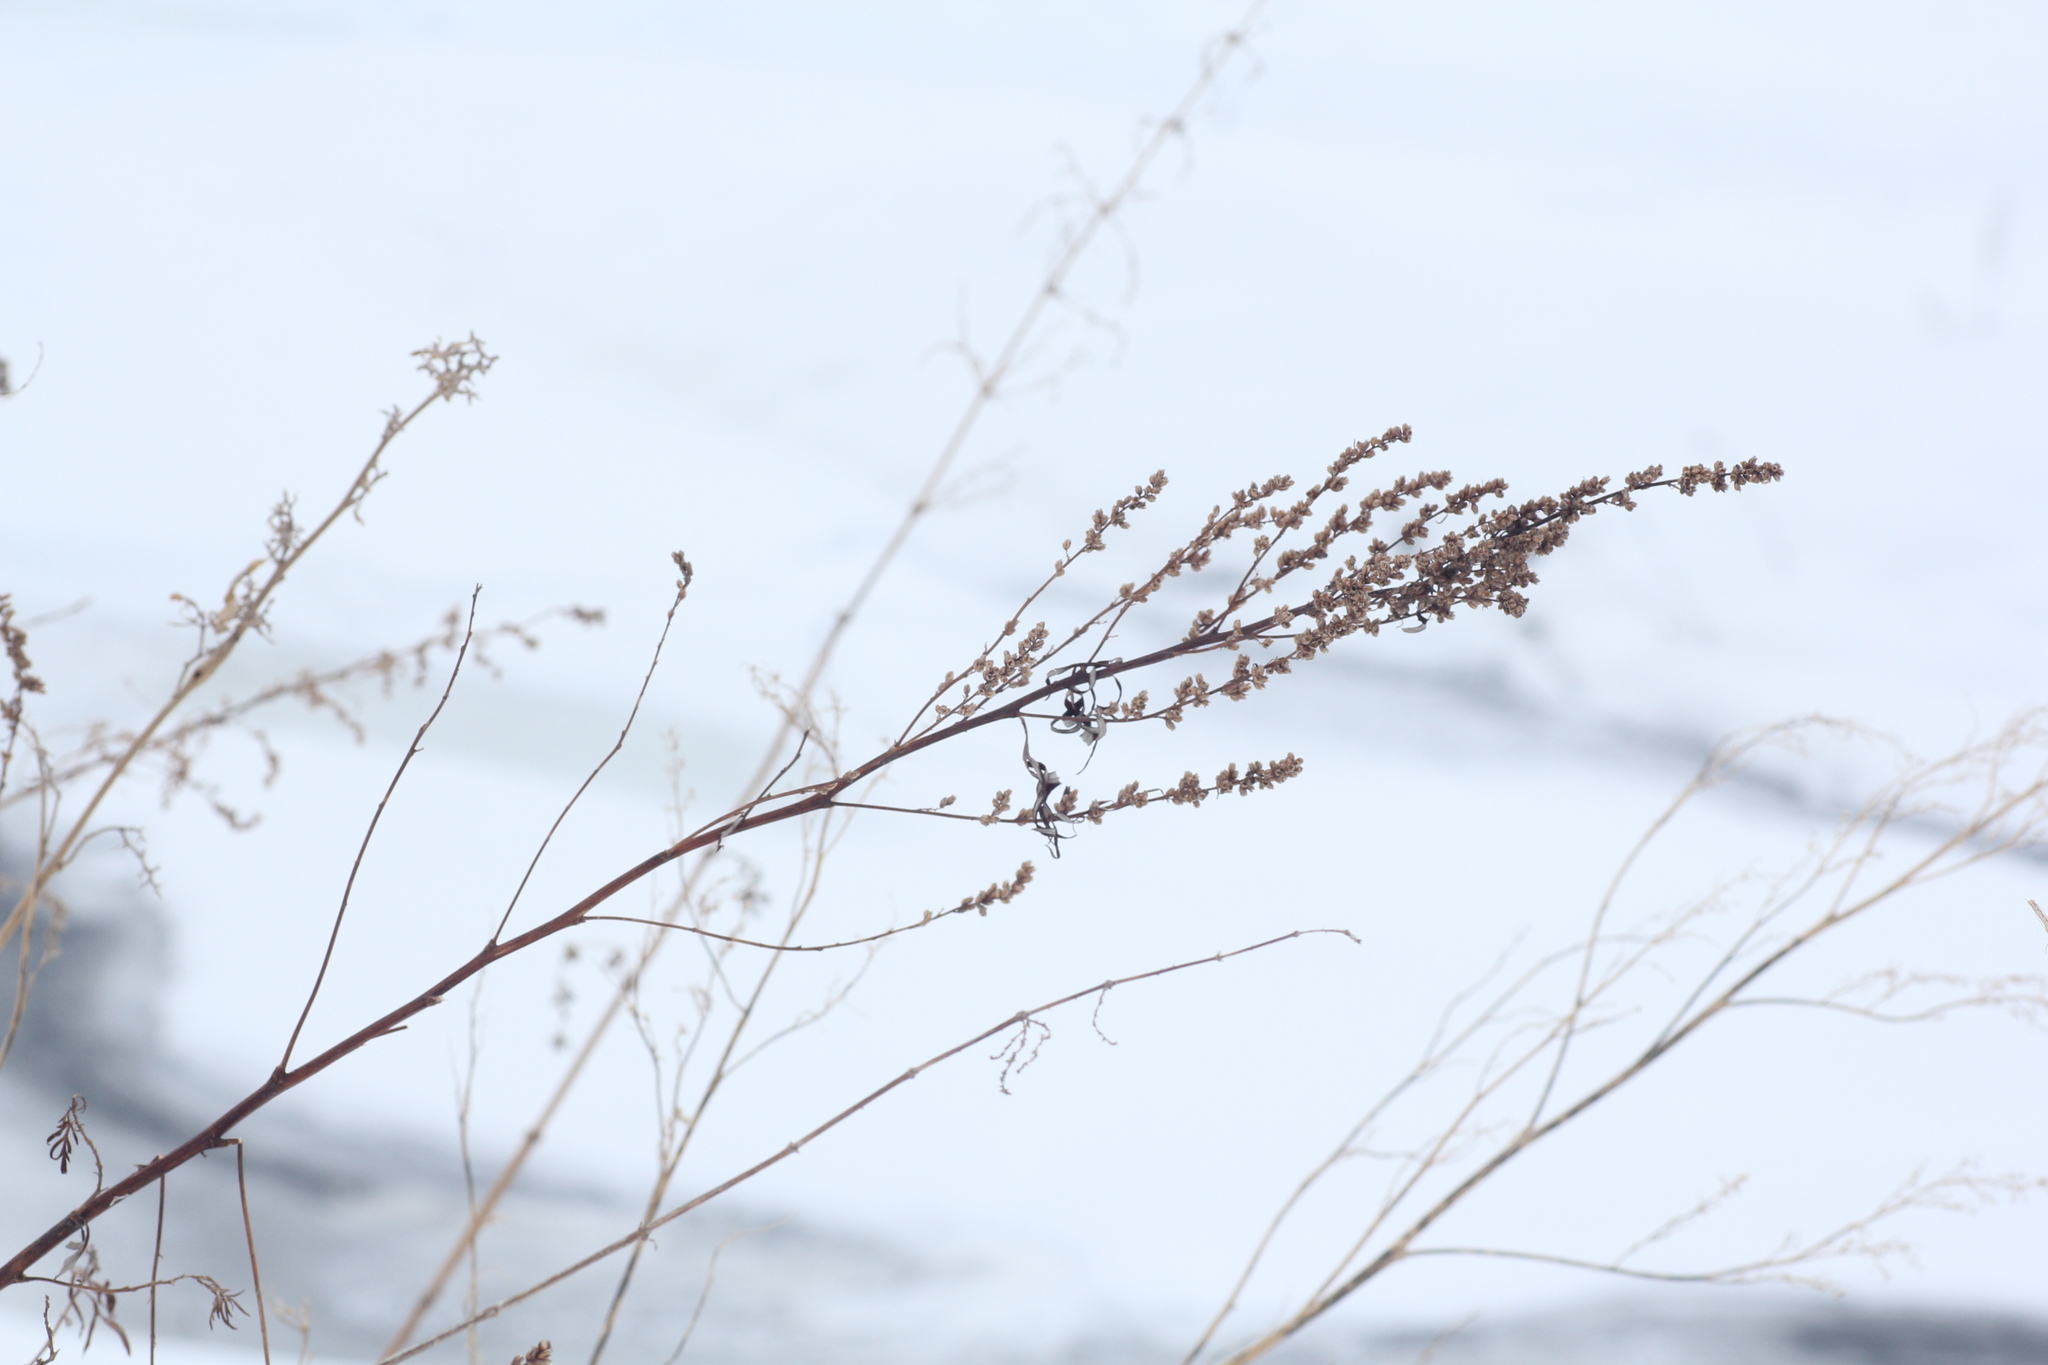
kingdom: Plantae
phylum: Tracheophyta
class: Magnoliopsida
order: Asterales
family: Asteraceae
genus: Artemisia
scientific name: Artemisia vulgaris
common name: Mugwort
